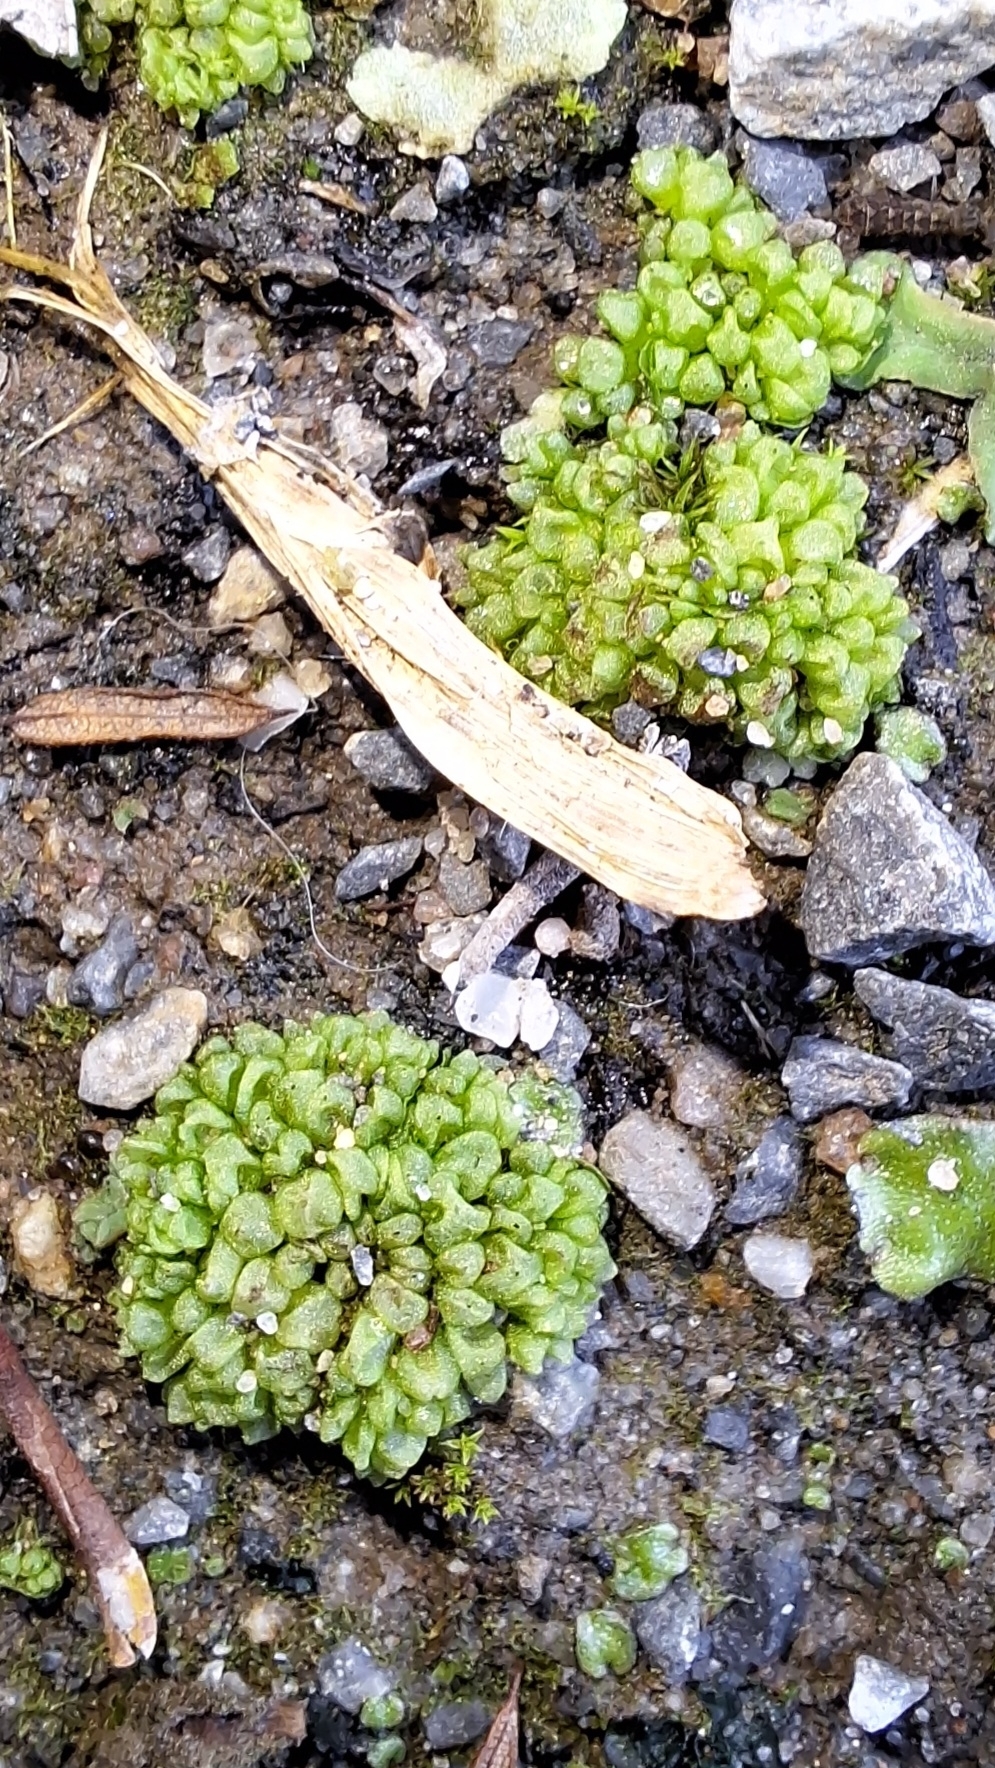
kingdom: Plantae
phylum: Marchantiophyta
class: Marchantiopsida
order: Sphaerocarpales
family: Sphaerocarpaceae
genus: Sphaerocarpos
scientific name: Sphaerocarpos texanus
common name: Texas balloonwort
